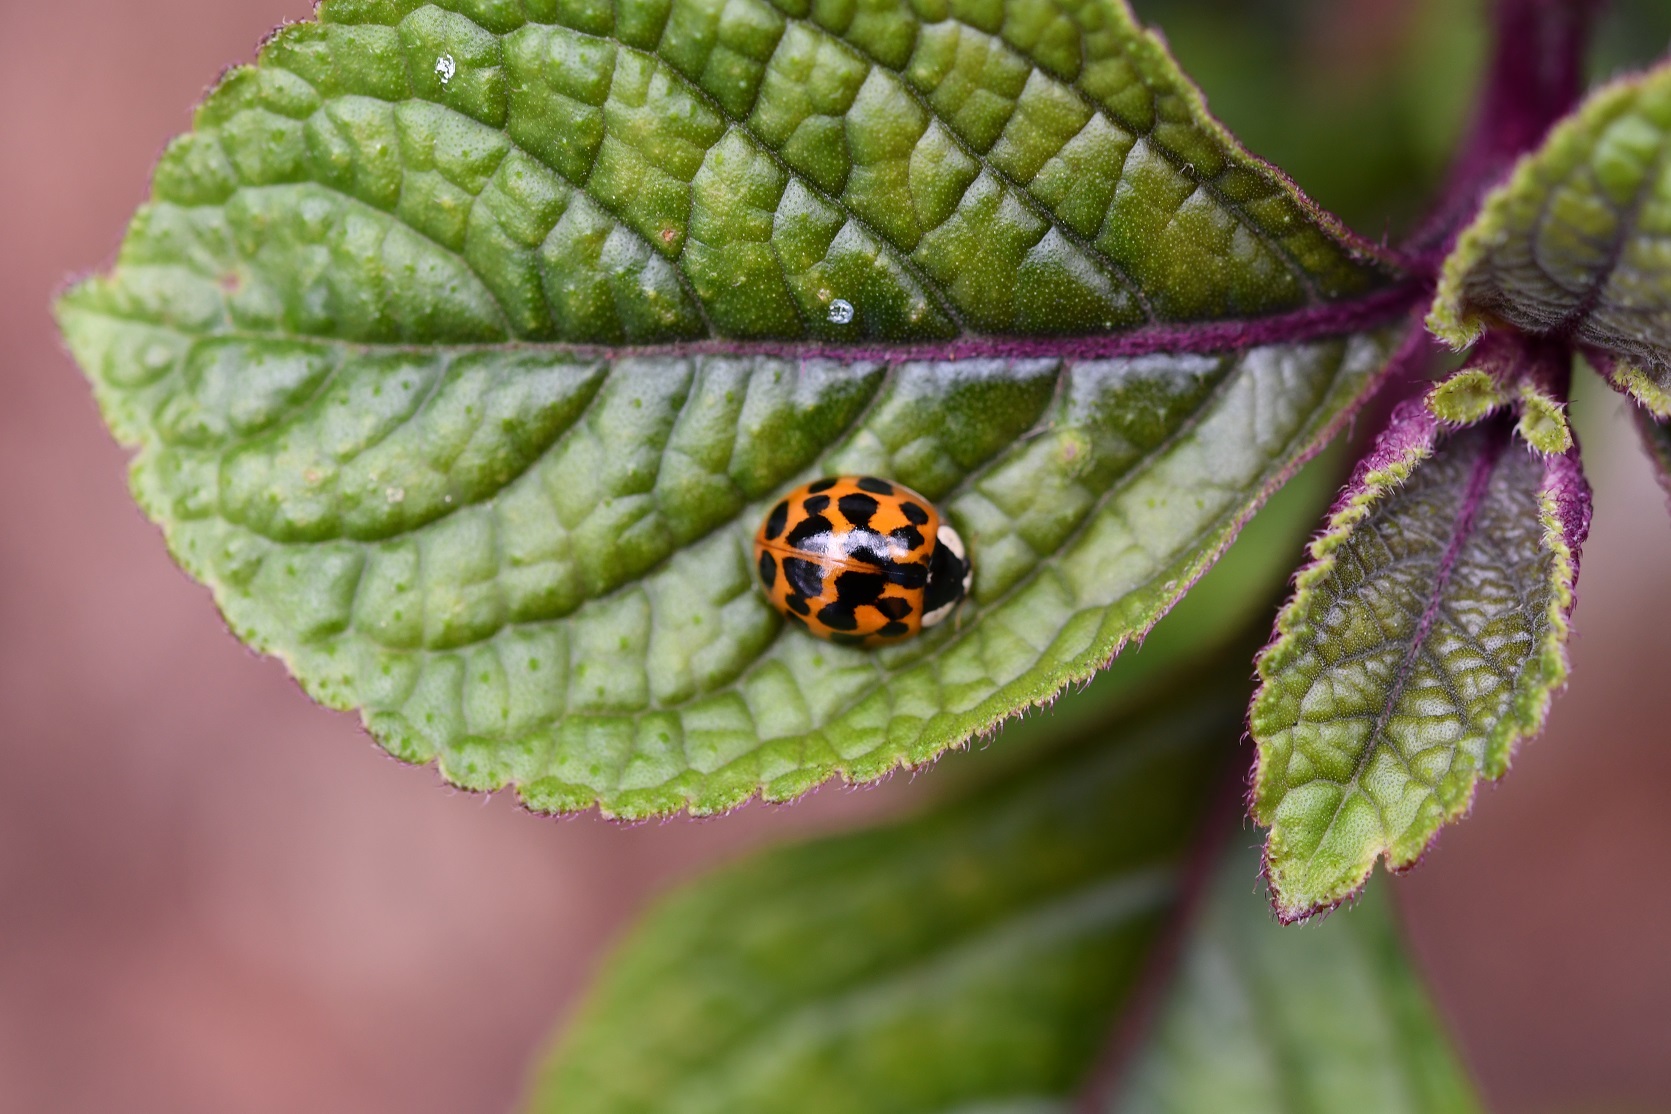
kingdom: Animalia
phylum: Arthropoda
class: Insecta
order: Coleoptera
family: Coccinellidae
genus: Harmonia
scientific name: Harmonia axyridis
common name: Harlequin ladybird
